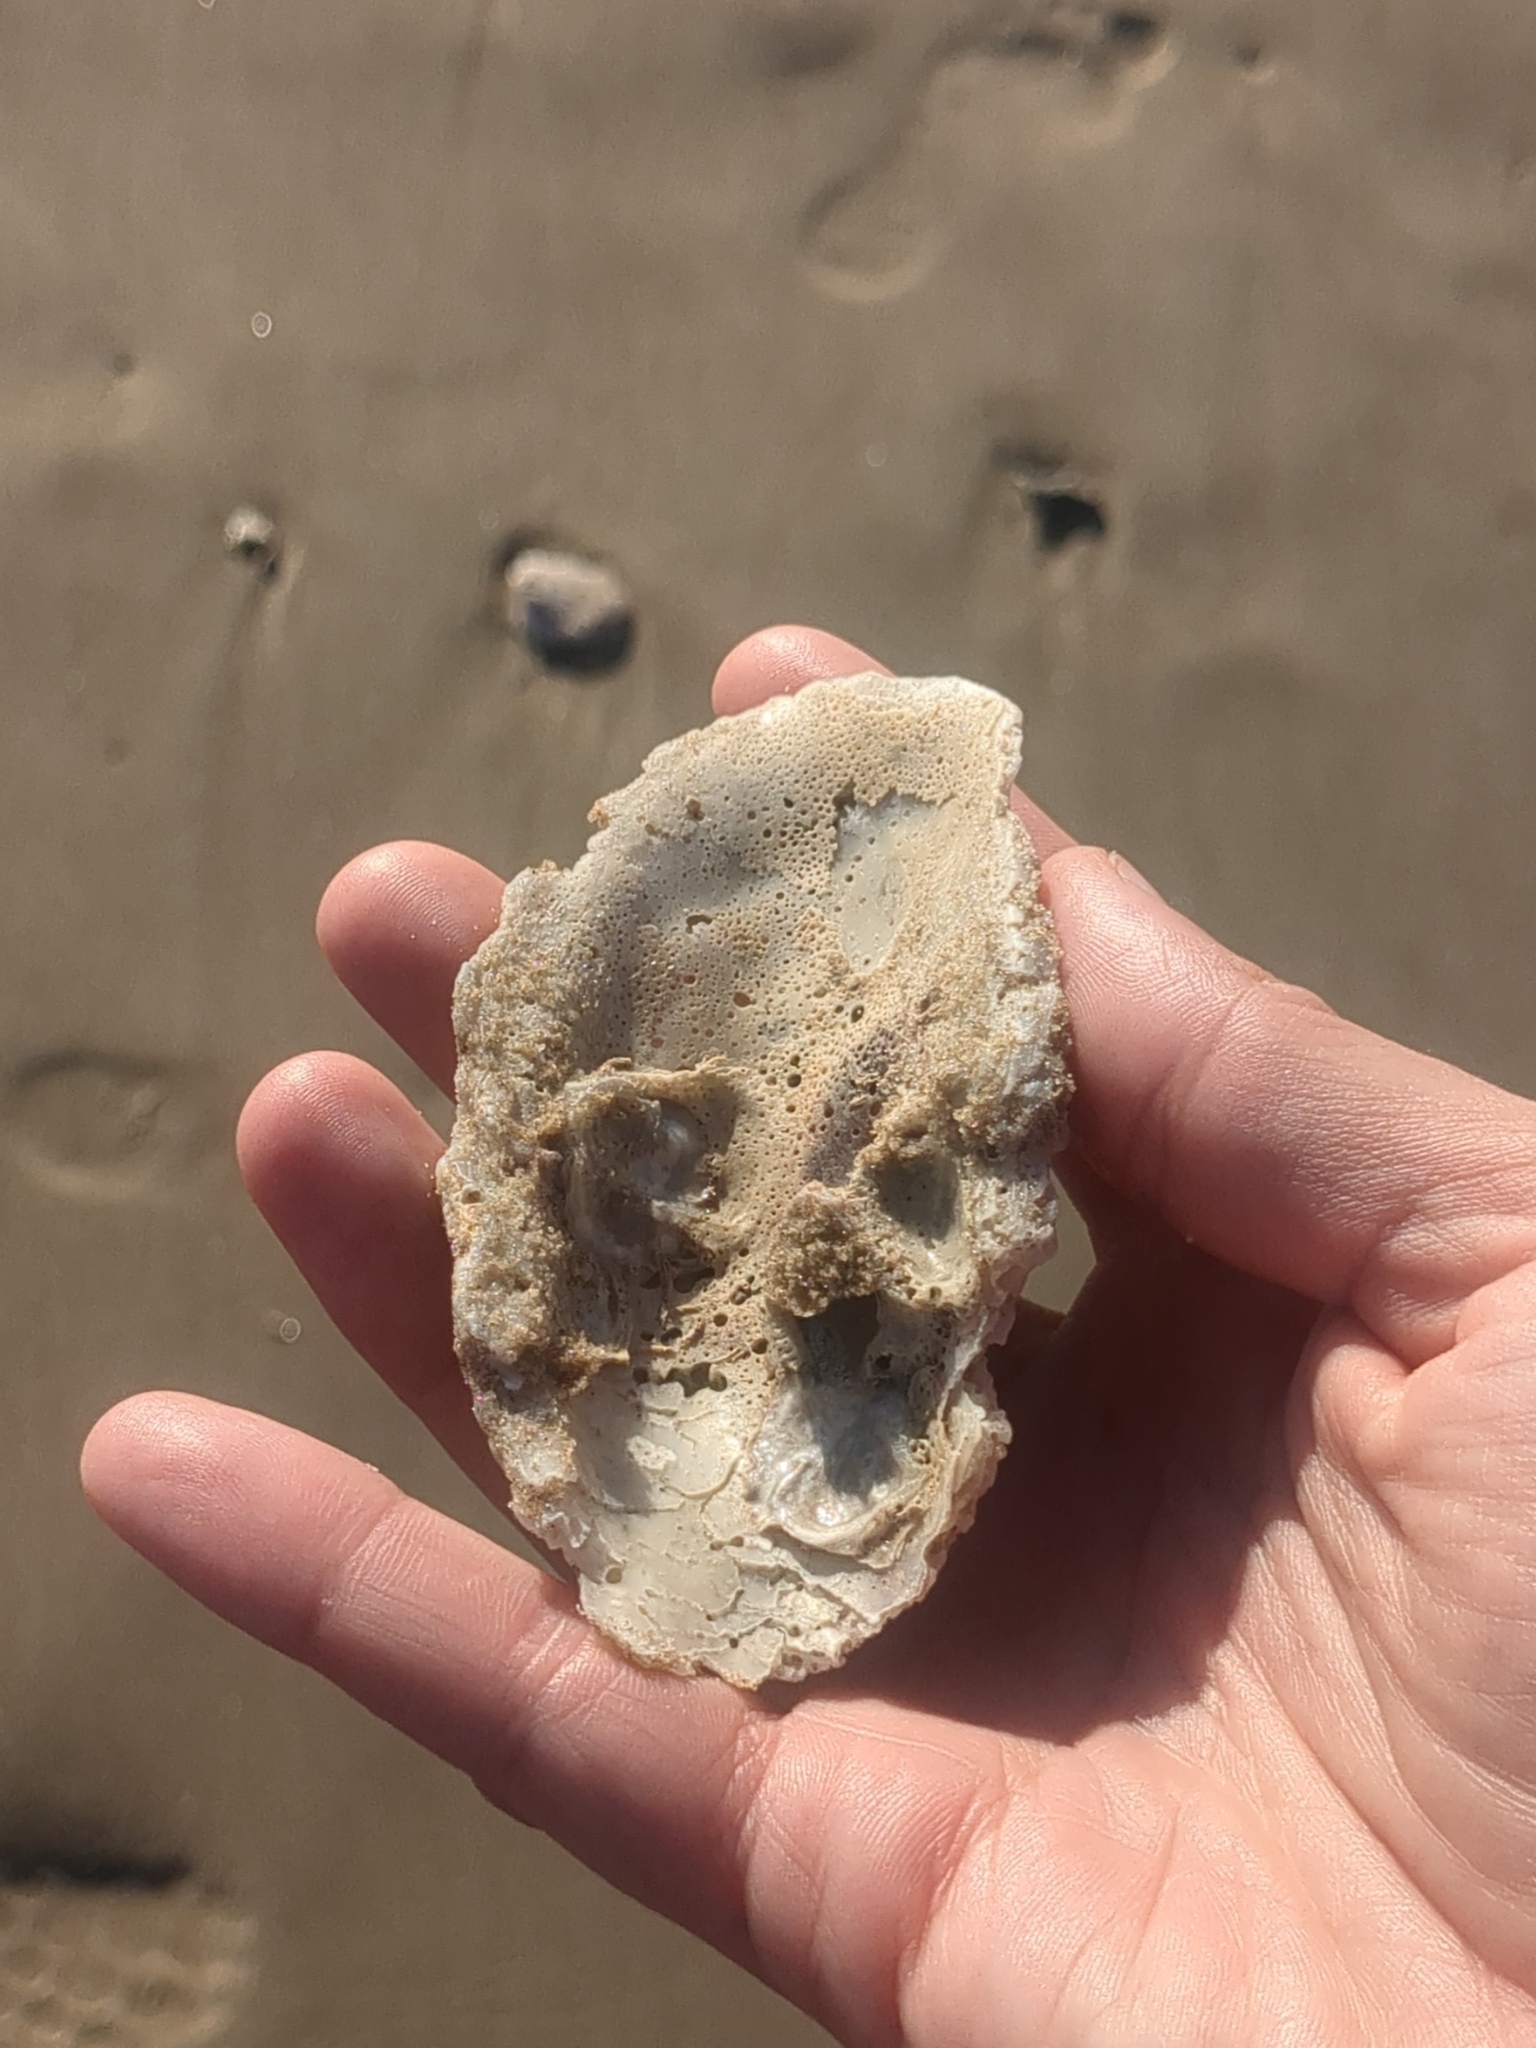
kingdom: Animalia
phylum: Mollusca
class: Bivalvia
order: Ostreida
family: Ostreidae
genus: Crassostrea
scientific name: Crassostrea virginica
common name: American oyster
